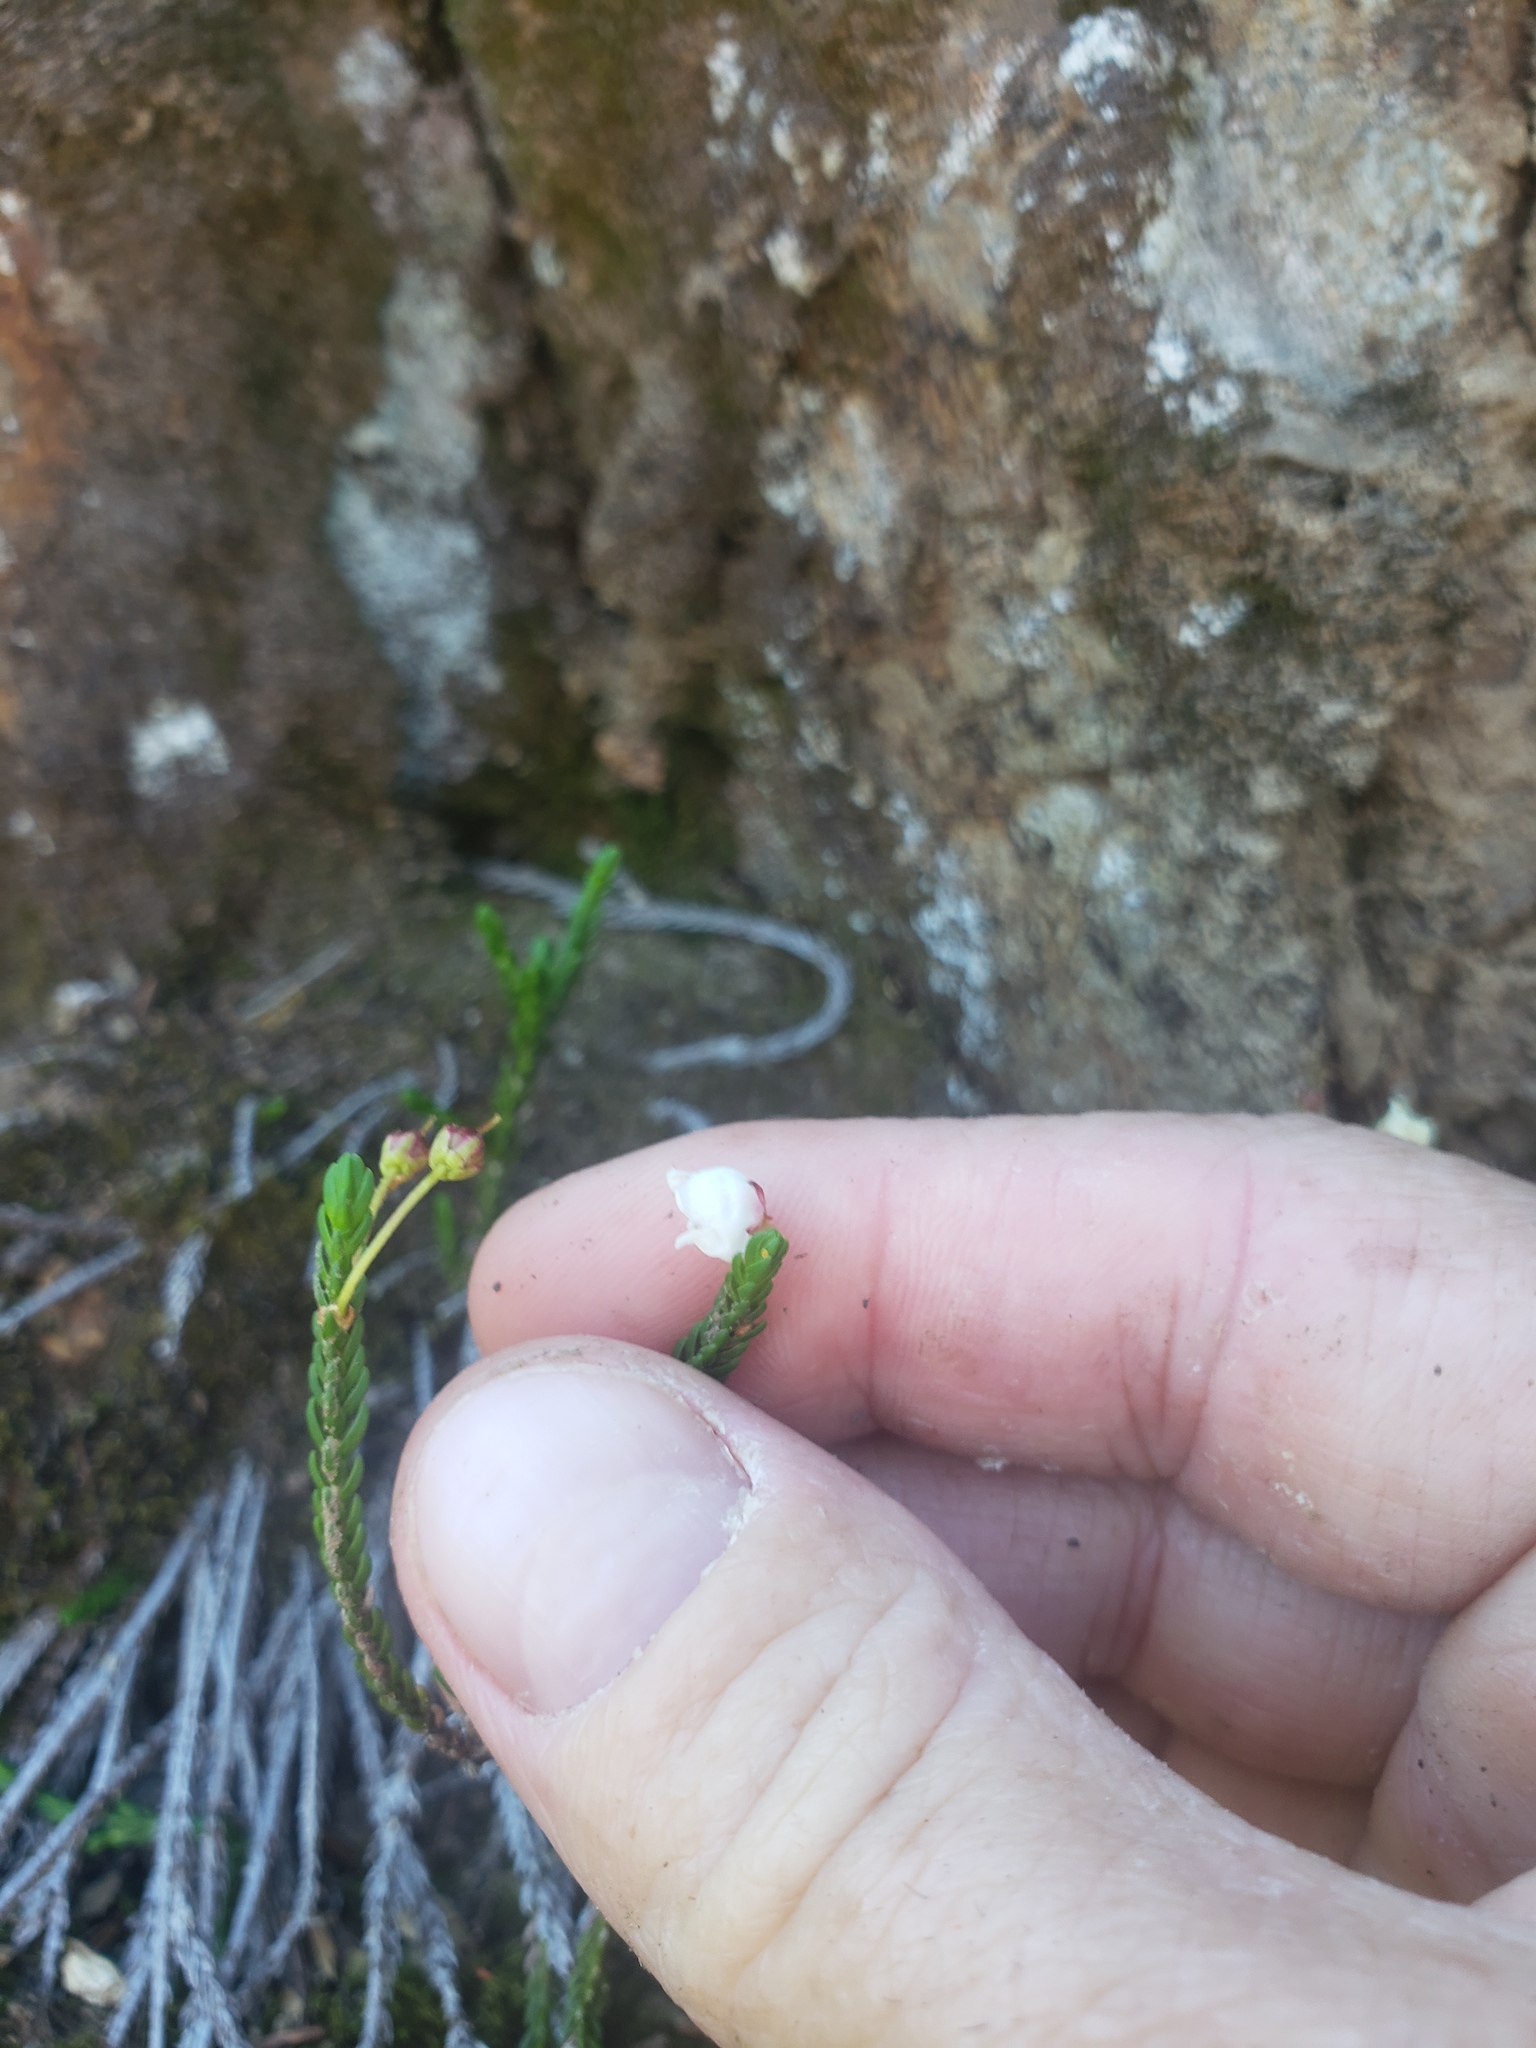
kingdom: Plantae
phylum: Tracheophyta
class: Magnoliopsida
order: Ericales
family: Ericaceae
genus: Cassiope
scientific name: Cassiope mertensiana
